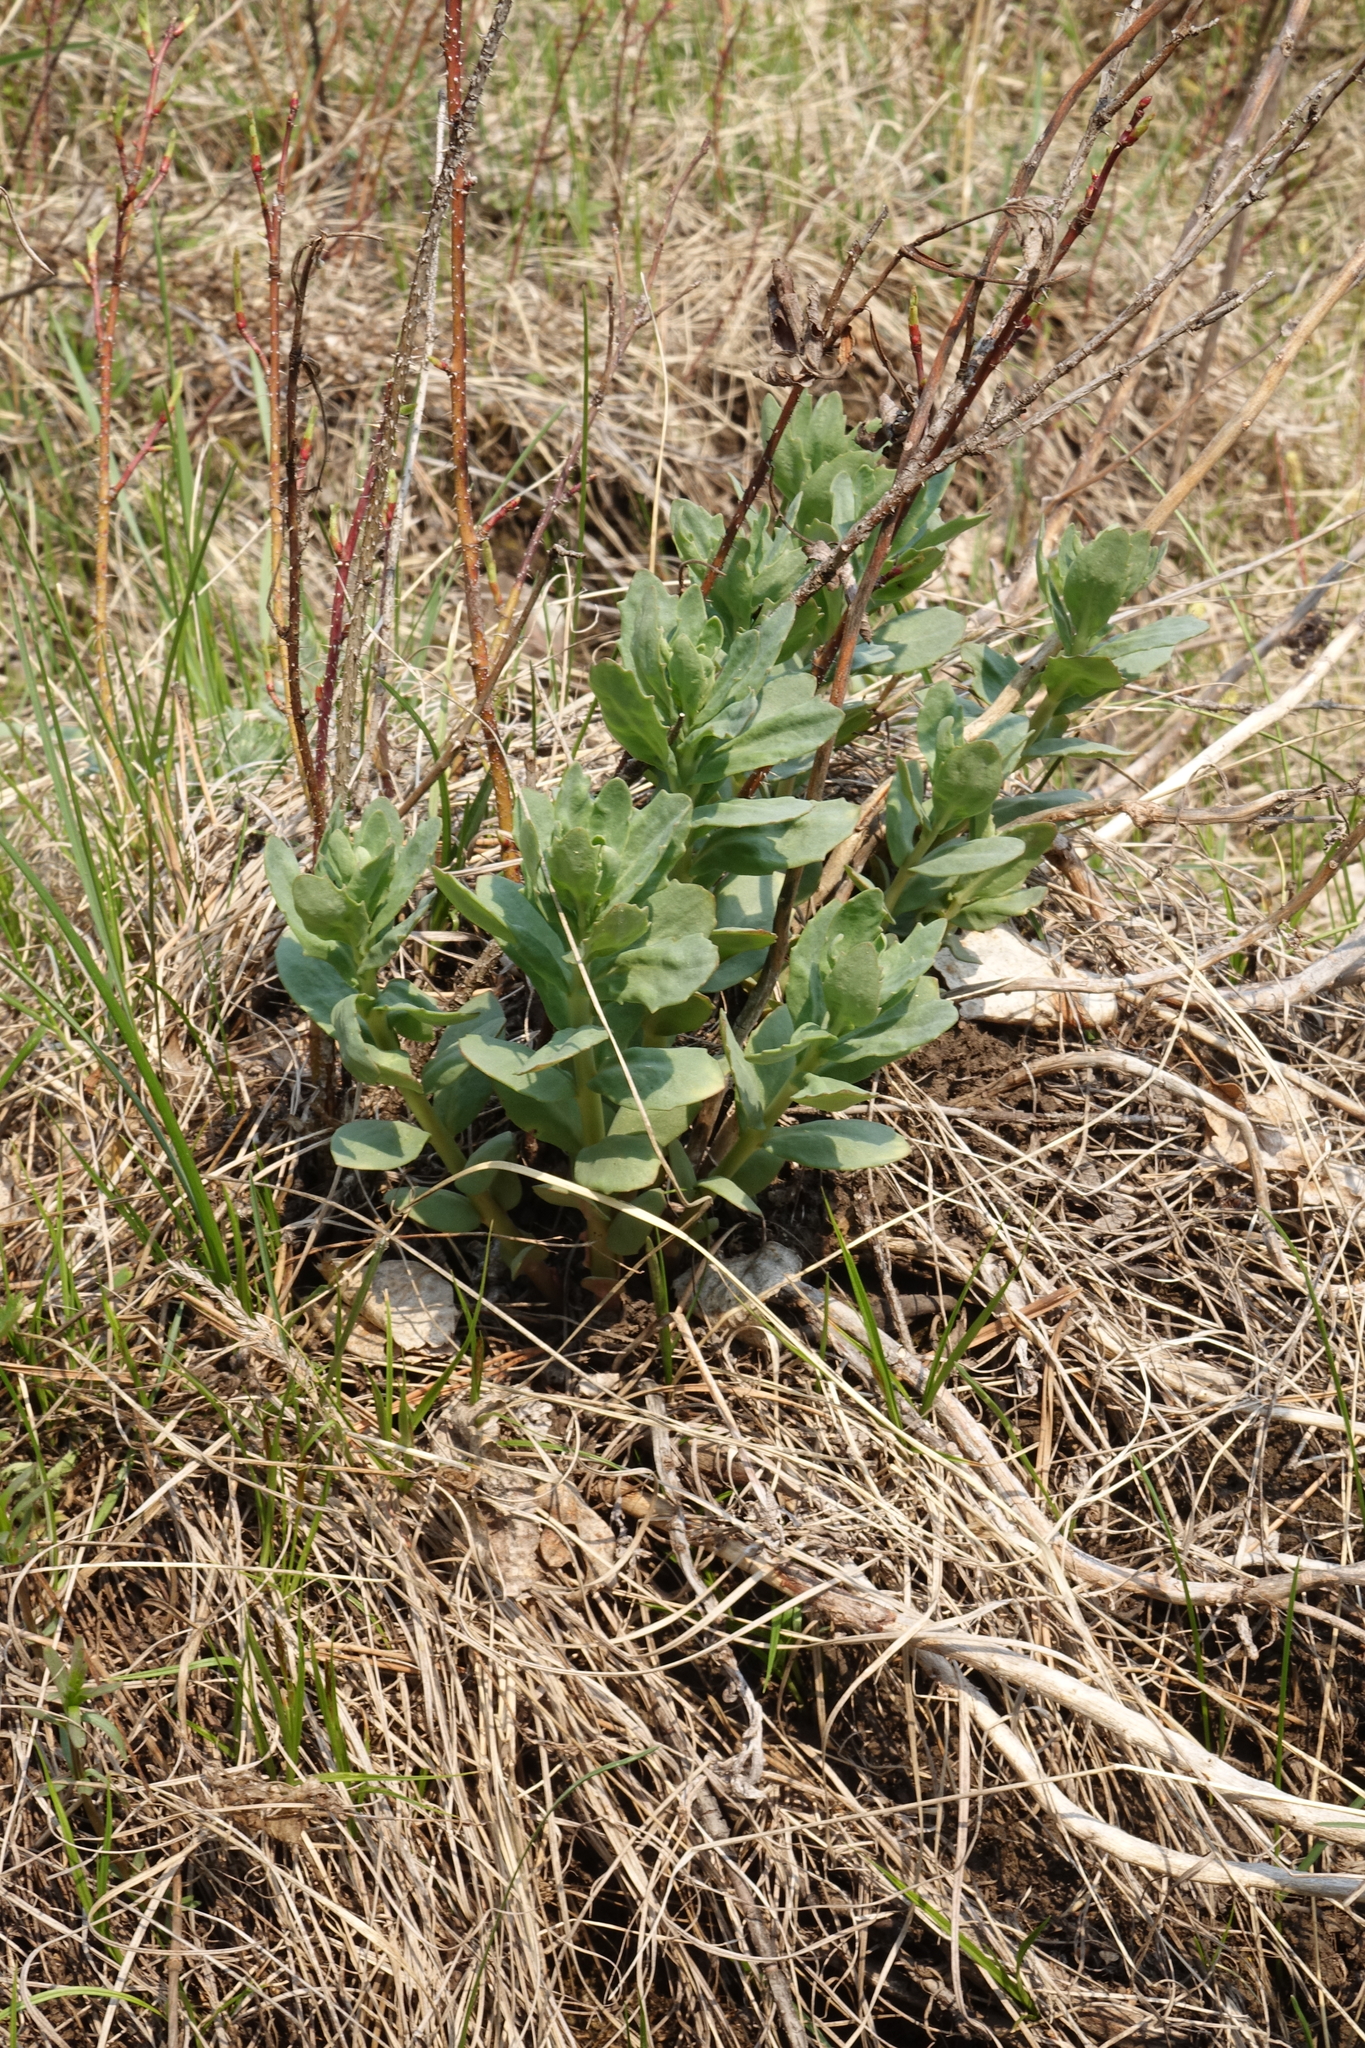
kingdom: Plantae
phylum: Tracheophyta
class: Magnoliopsida
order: Saxifragales
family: Crassulaceae
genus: Hylotelephium
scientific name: Hylotelephium telephium
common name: Live-forever
